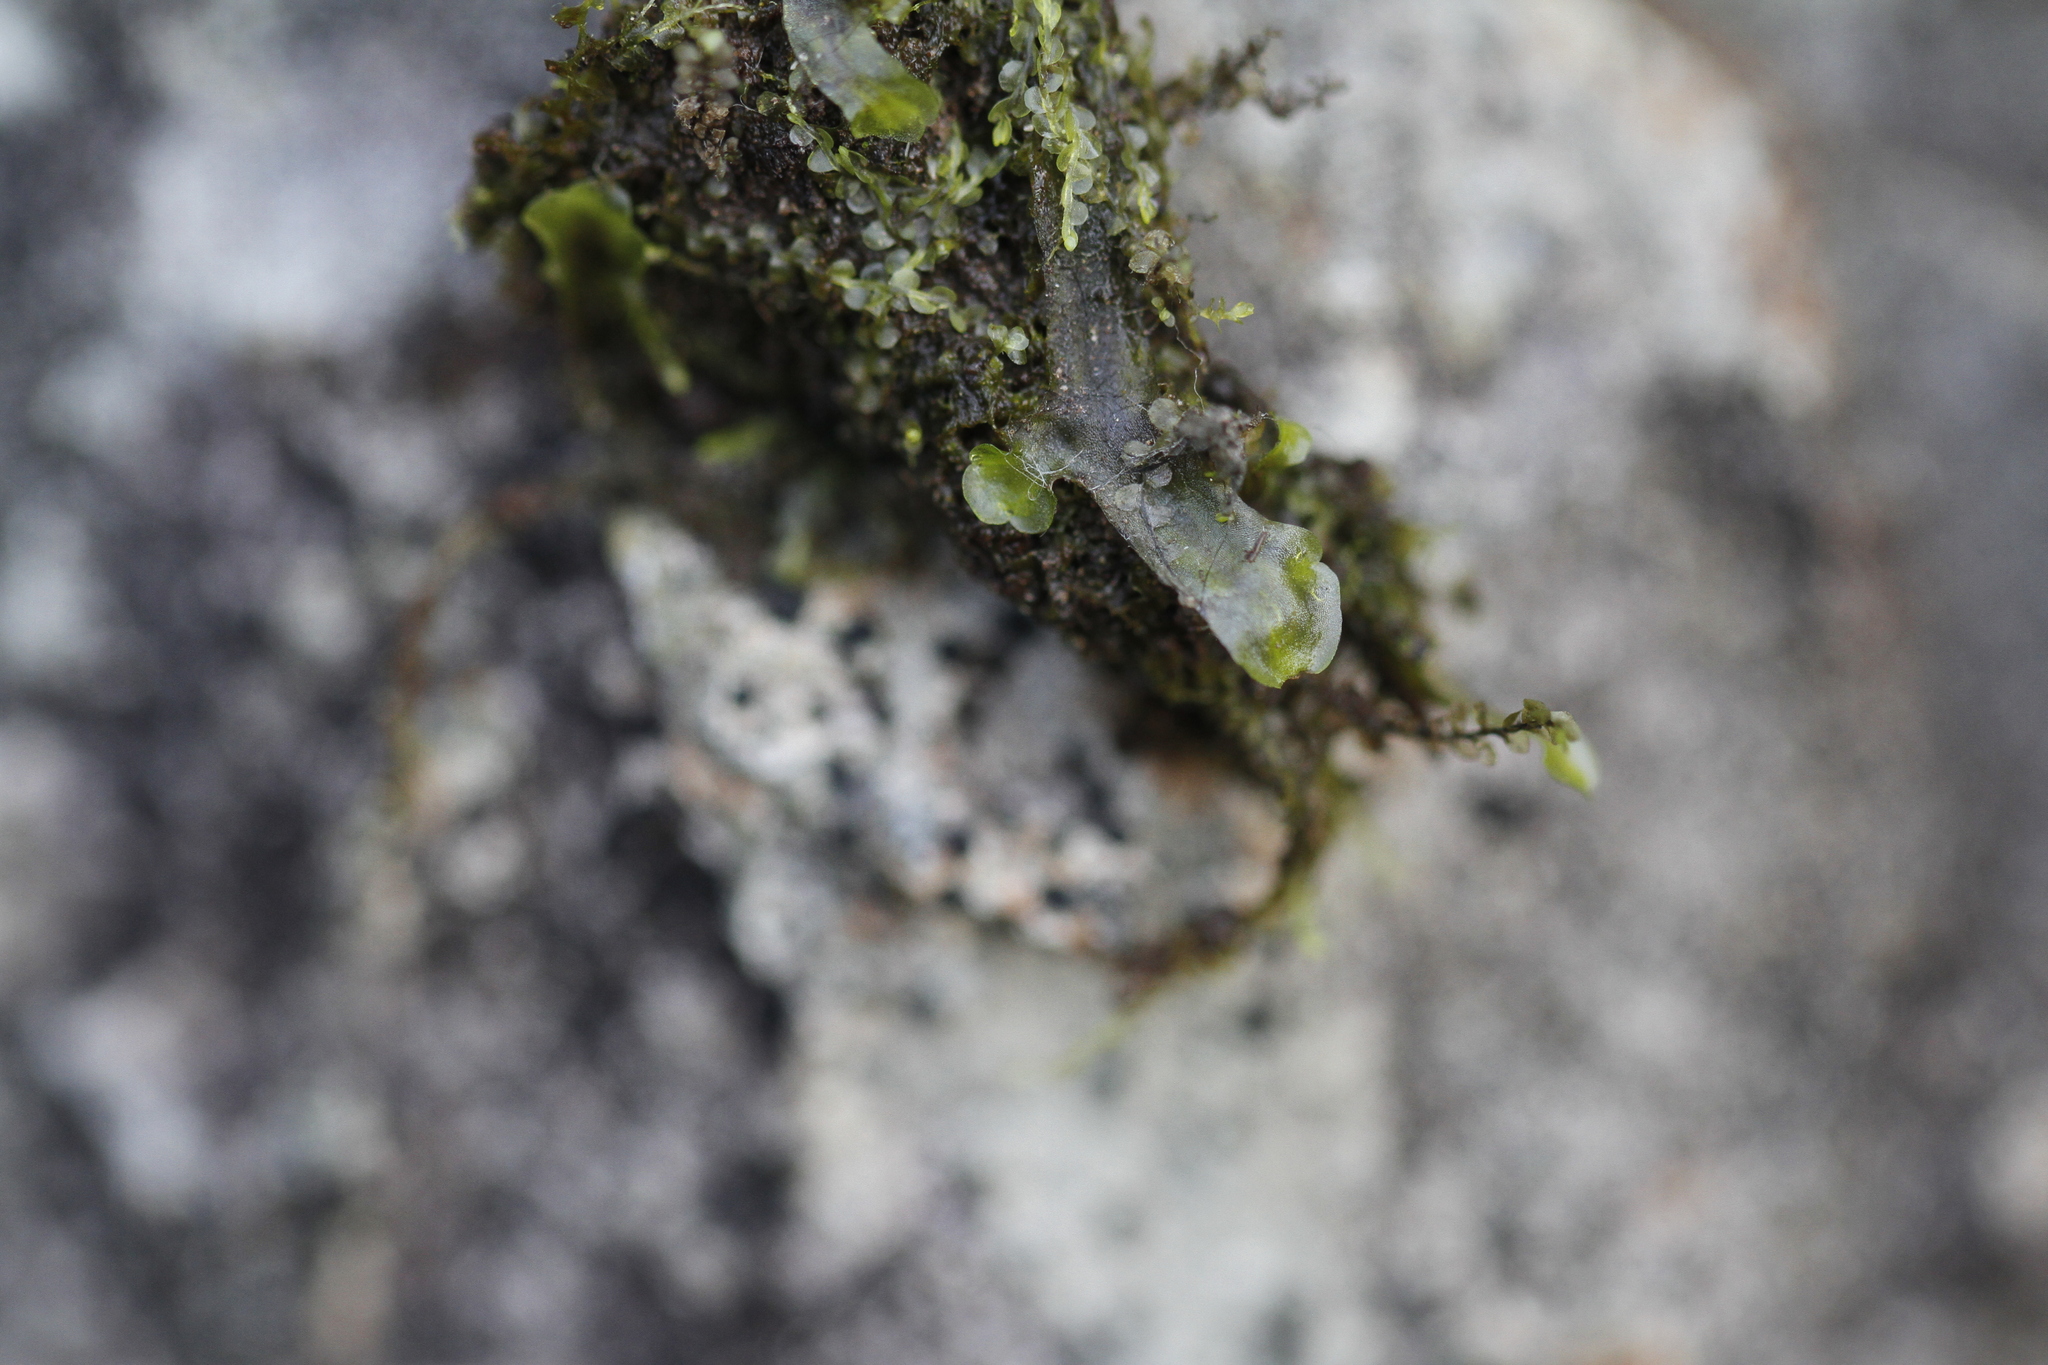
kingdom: Plantae
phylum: Marchantiophyta
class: Jungermanniopsida
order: Pelliales
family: Pelliaceae
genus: Pellia
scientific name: Pellia neesiana
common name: Nees  pellia
